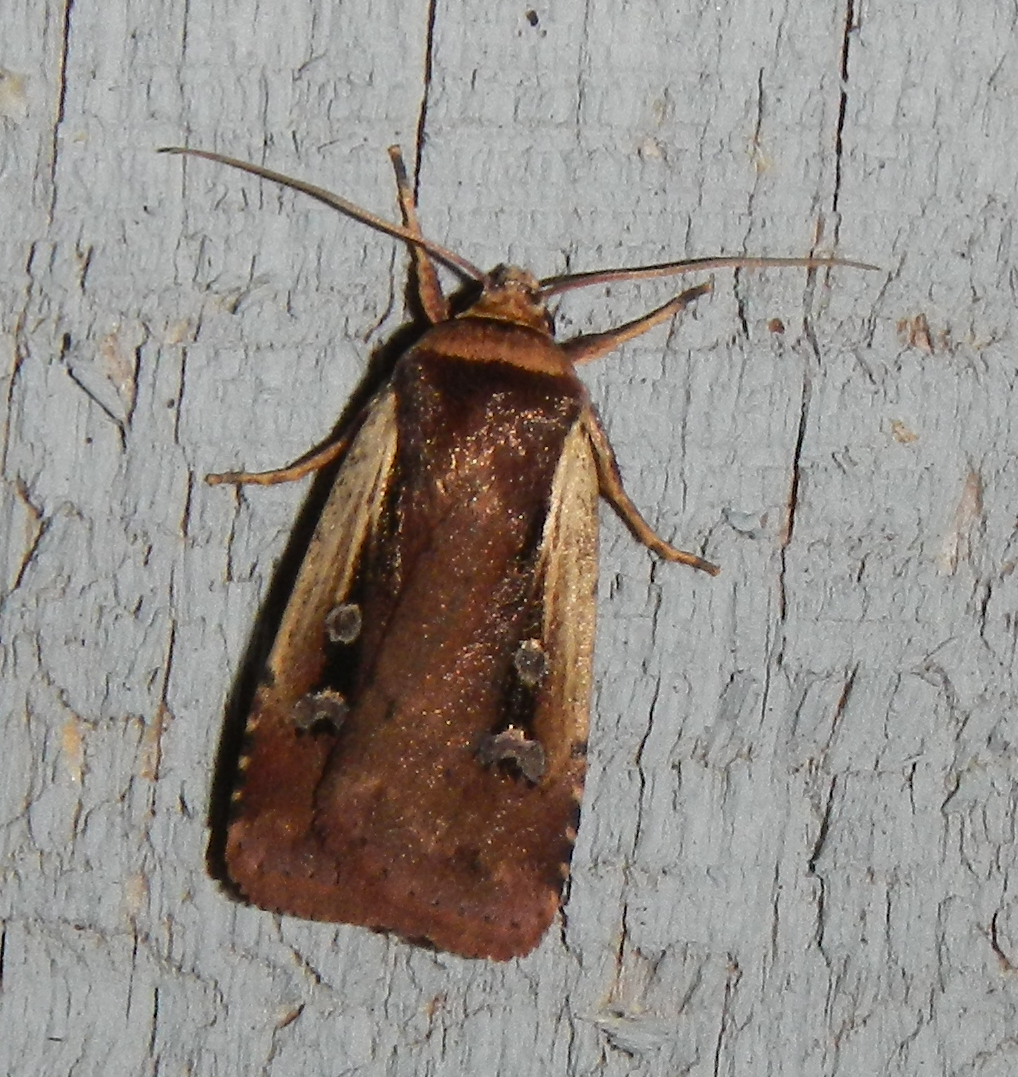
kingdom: Animalia
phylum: Arthropoda
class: Insecta
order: Lepidoptera
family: Noctuidae
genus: Ochropleura
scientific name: Ochropleura implecta
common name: Flame-shouldered dart
